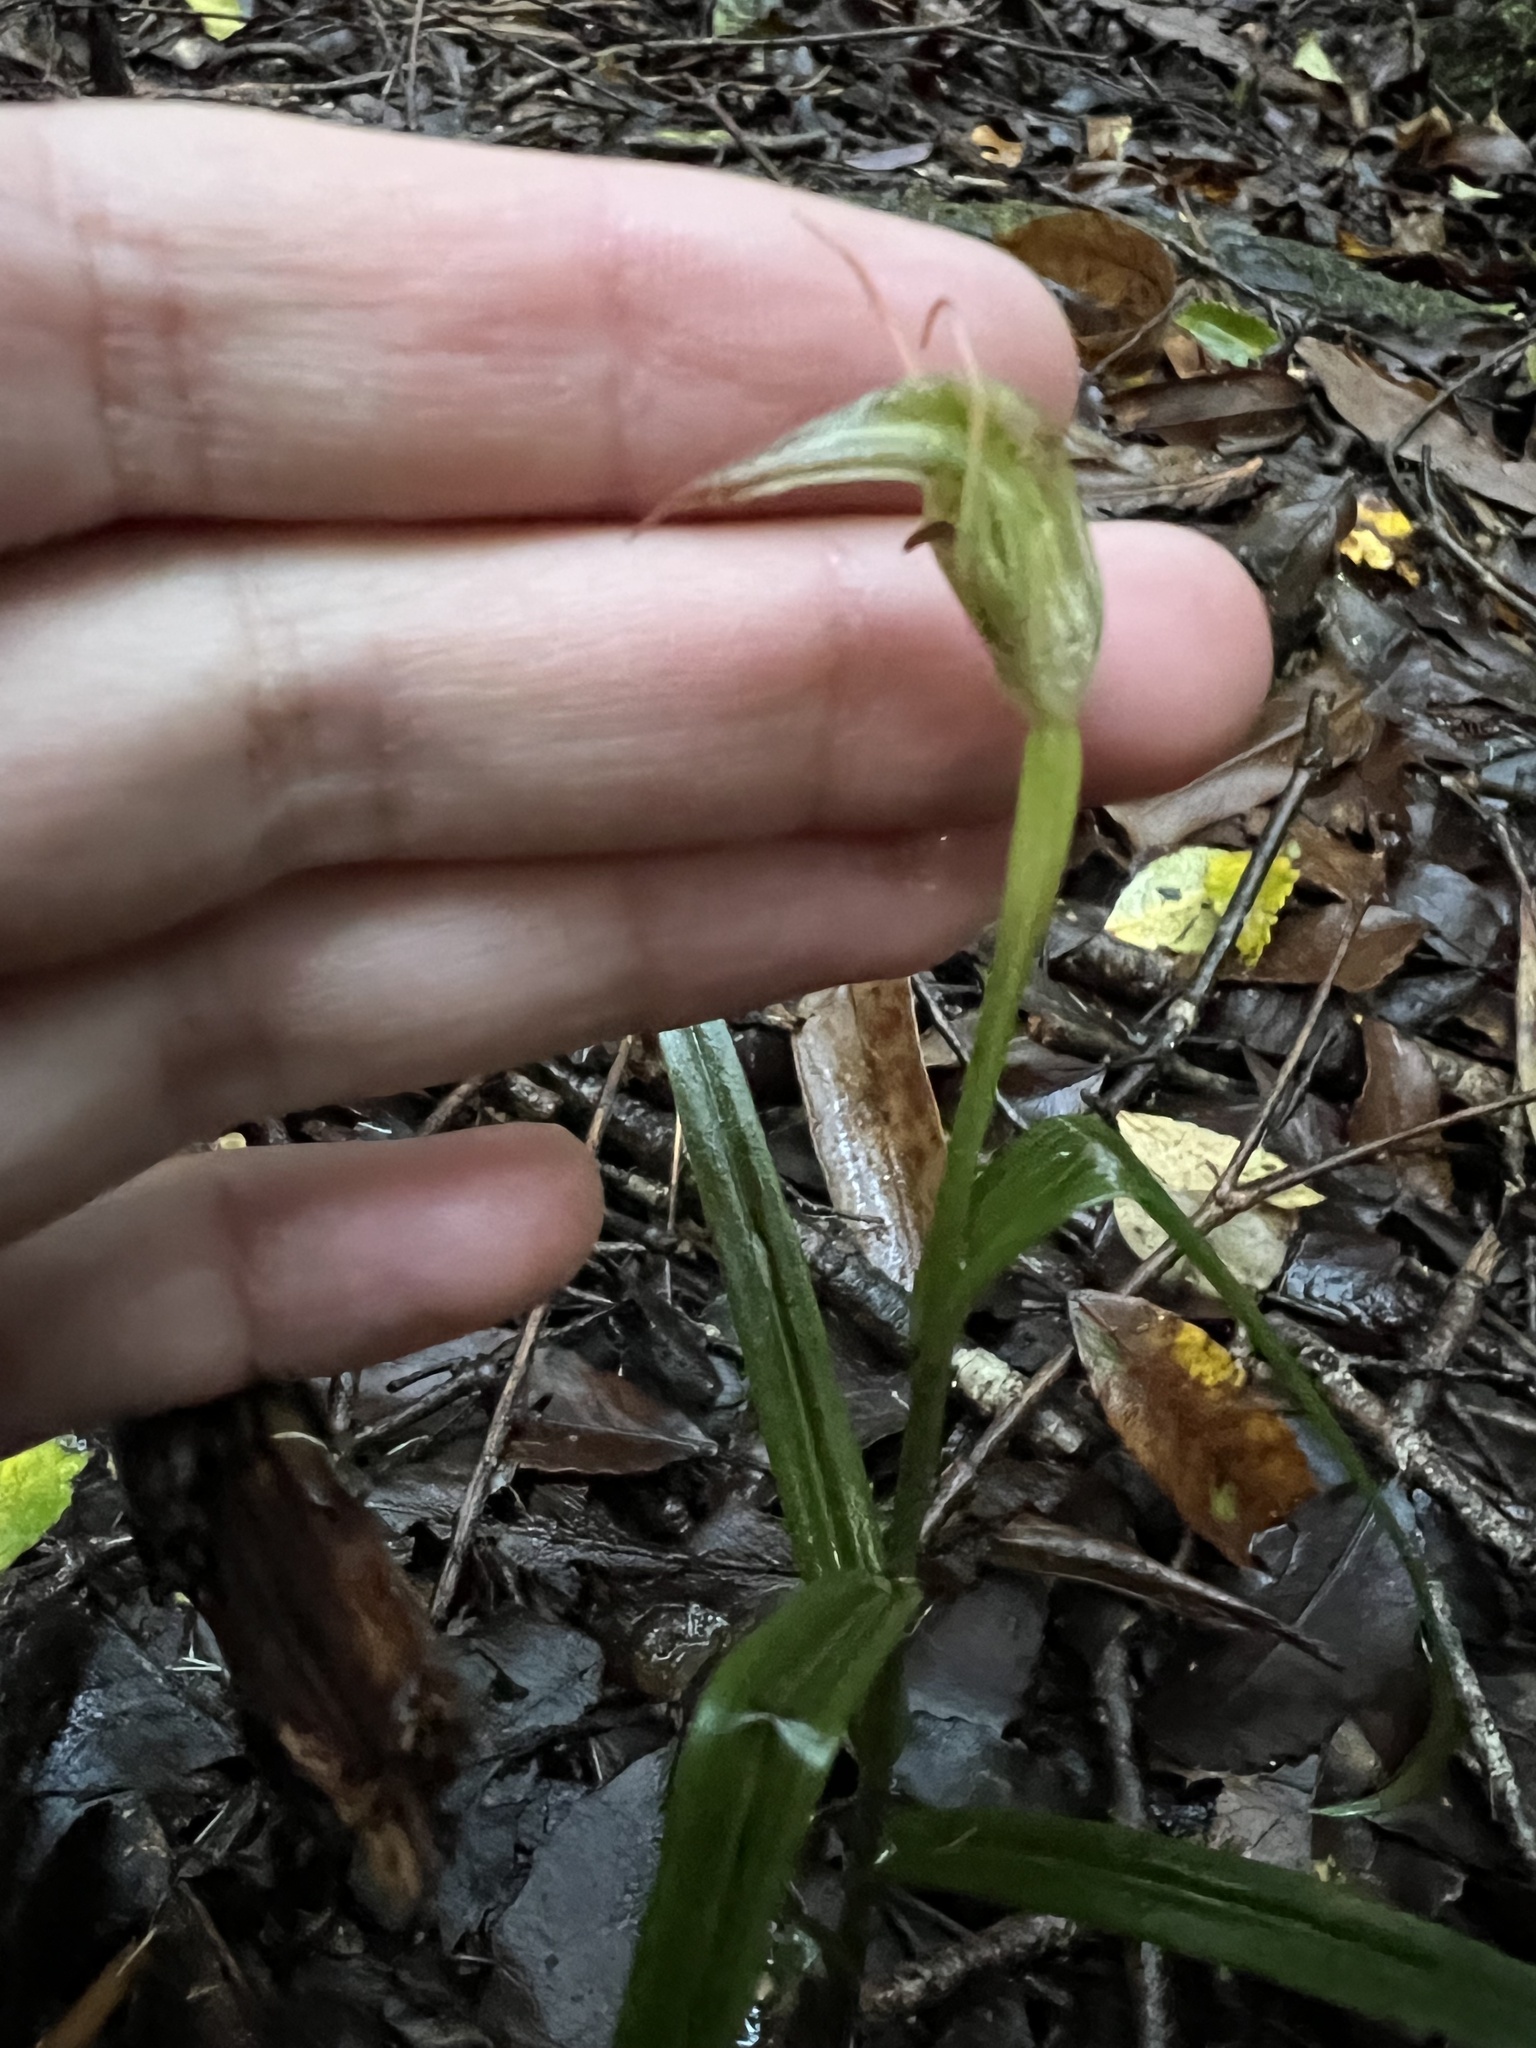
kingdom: Plantae
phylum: Tracheophyta
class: Liliopsida
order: Asparagales
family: Orchidaceae
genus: Pterostylis
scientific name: Pterostylis graminea
